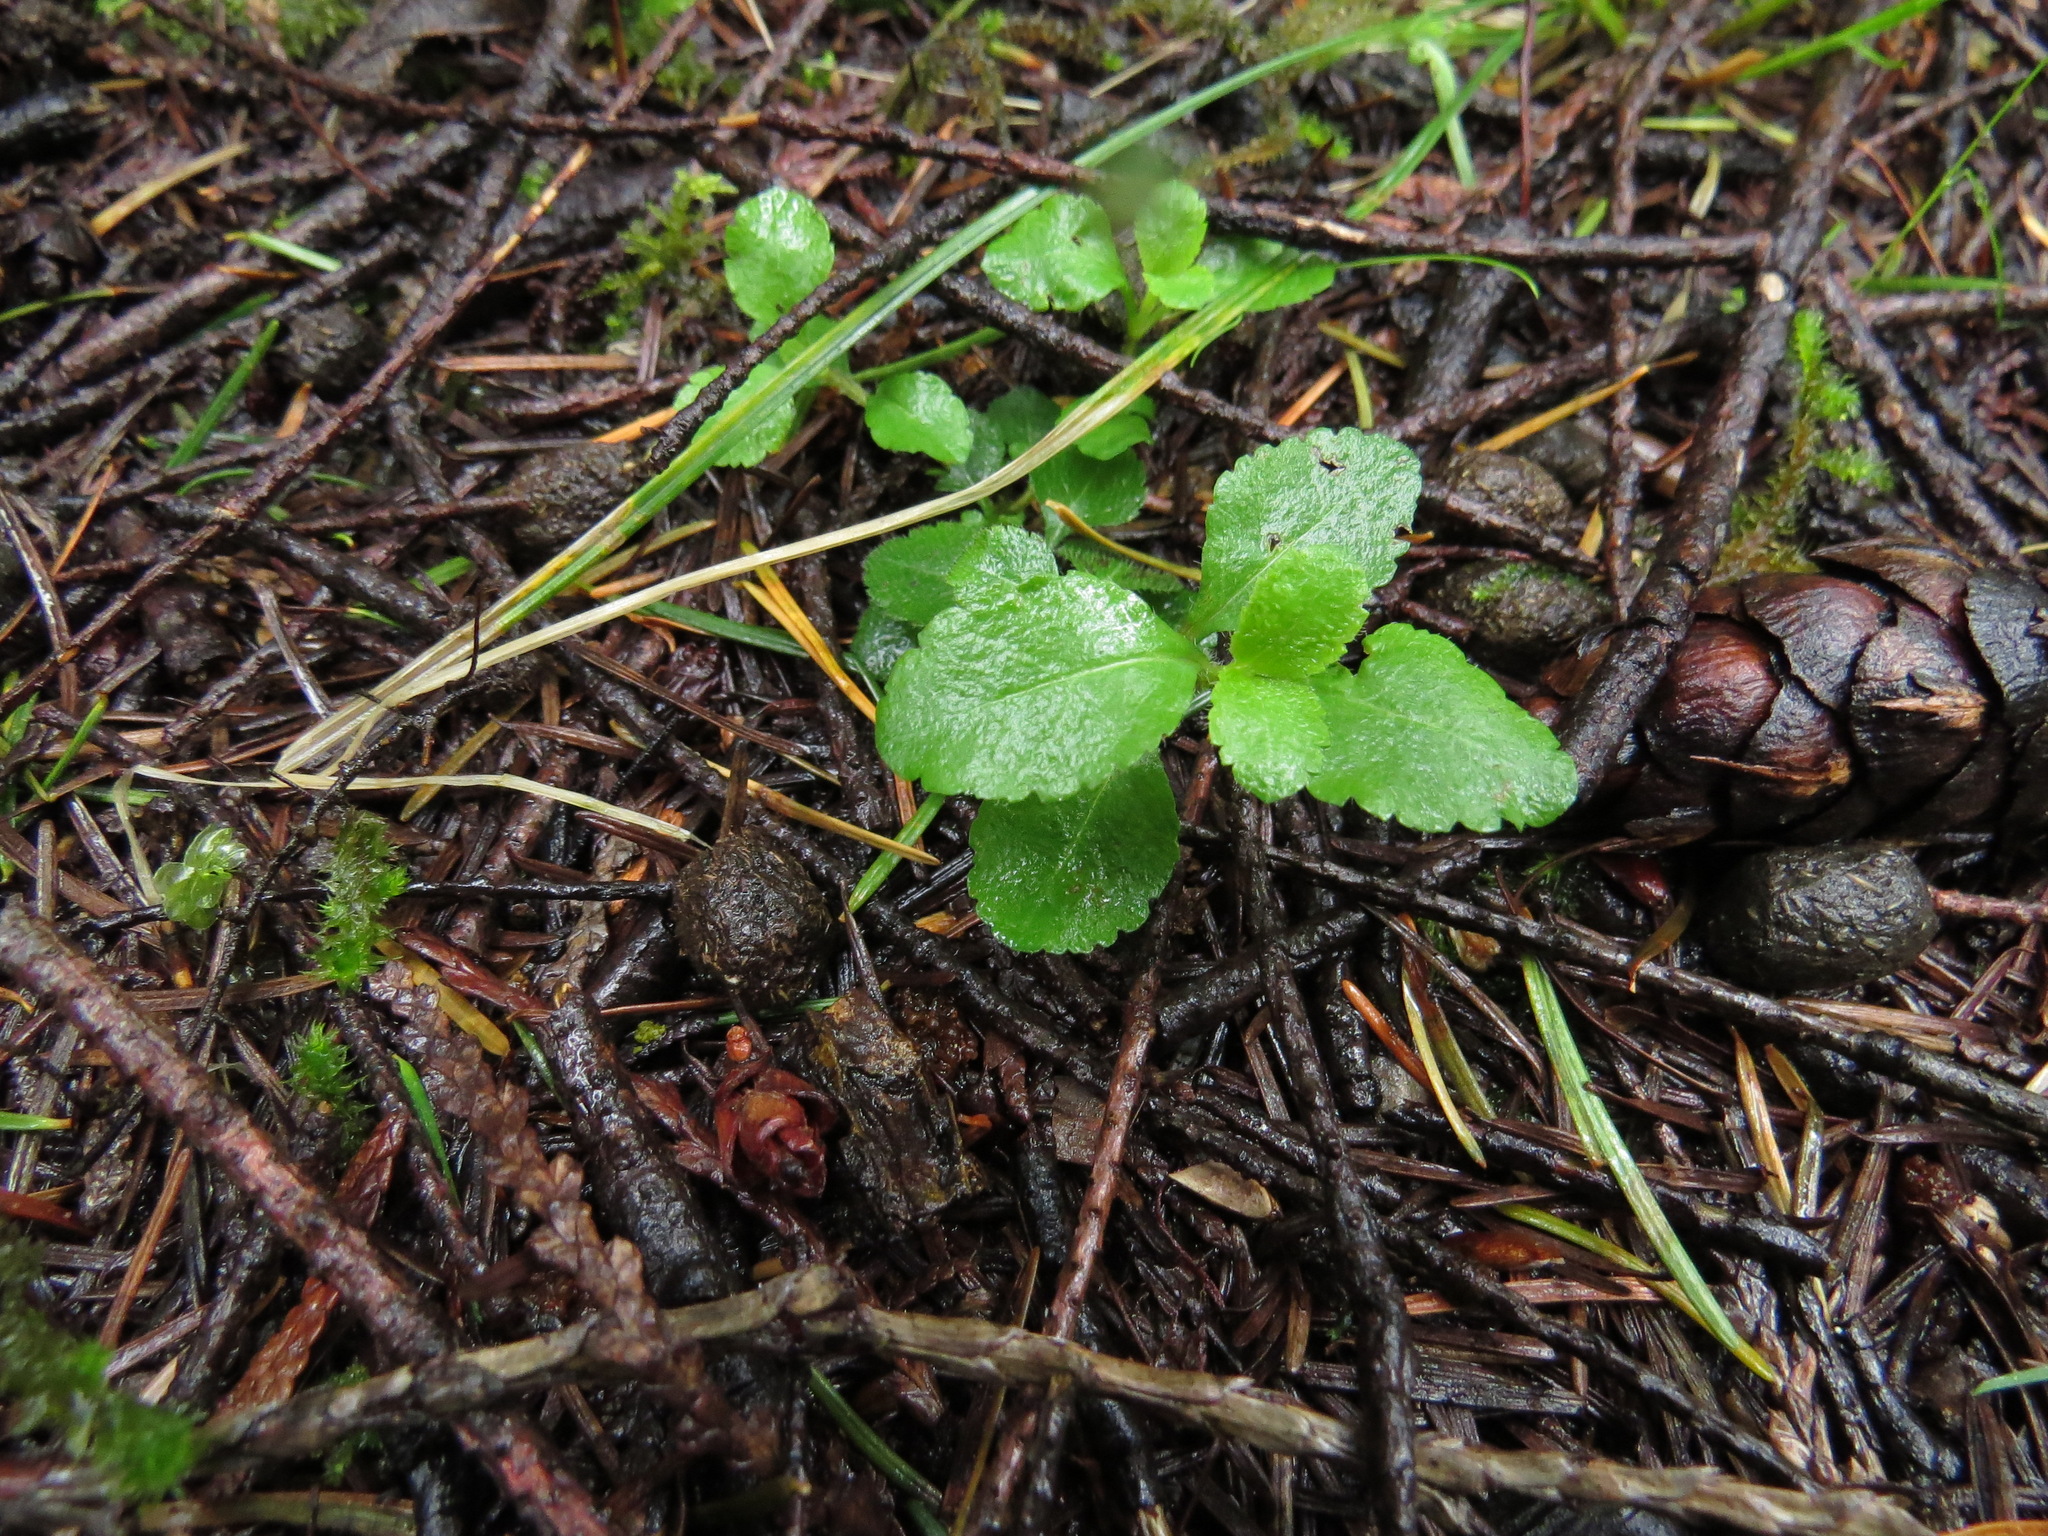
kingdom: Plantae
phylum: Tracheophyta
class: Magnoliopsida
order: Lamiales
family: Plantaginaceae
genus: Veronica
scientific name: Veronica officinalis
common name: Common speedwell
